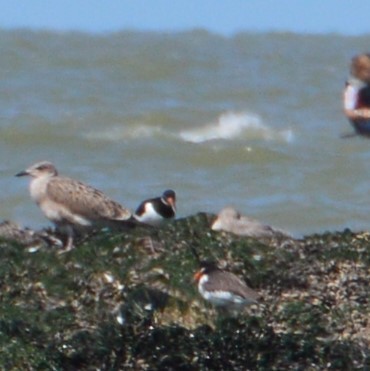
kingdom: Animalia
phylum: Chordata
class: Aves
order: Charadriiformes
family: Haematopodidae
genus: Haematopus
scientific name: Haematopus ostralegus
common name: Eurasian oystercatcher
